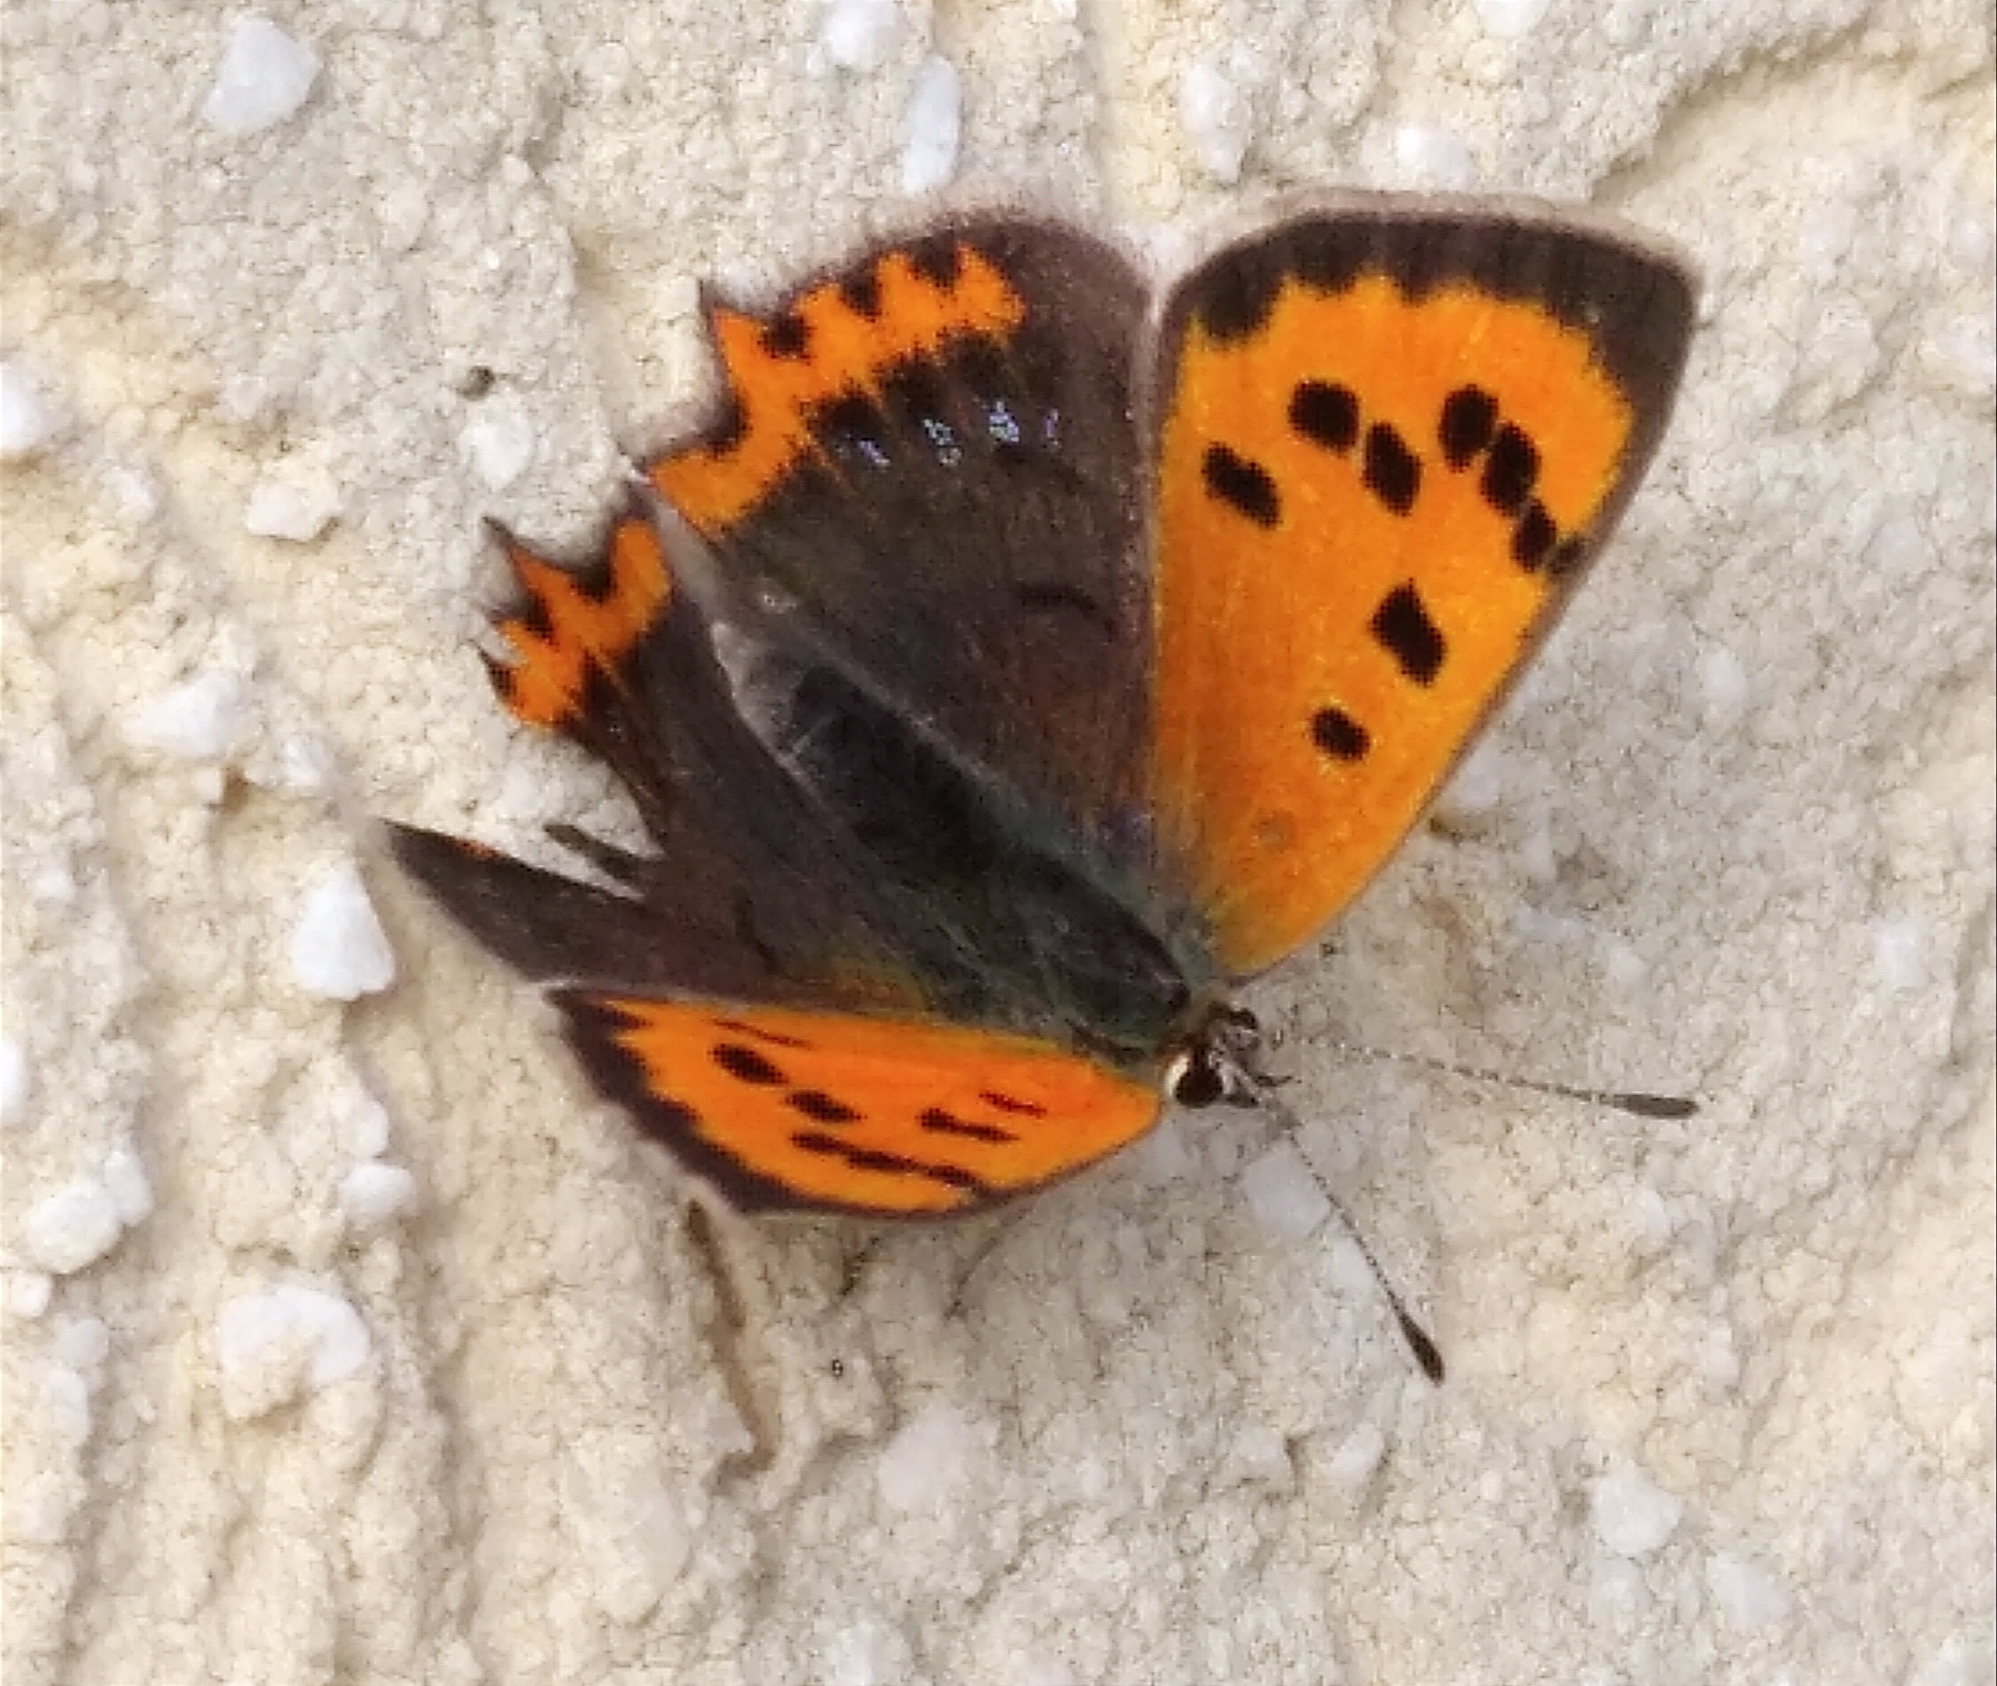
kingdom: Animalia
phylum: Arthropoda
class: Insecta
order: Lepidoptera
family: Lycaenidae
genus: Lycaena
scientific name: Lycaena phlaeas
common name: Small copper
